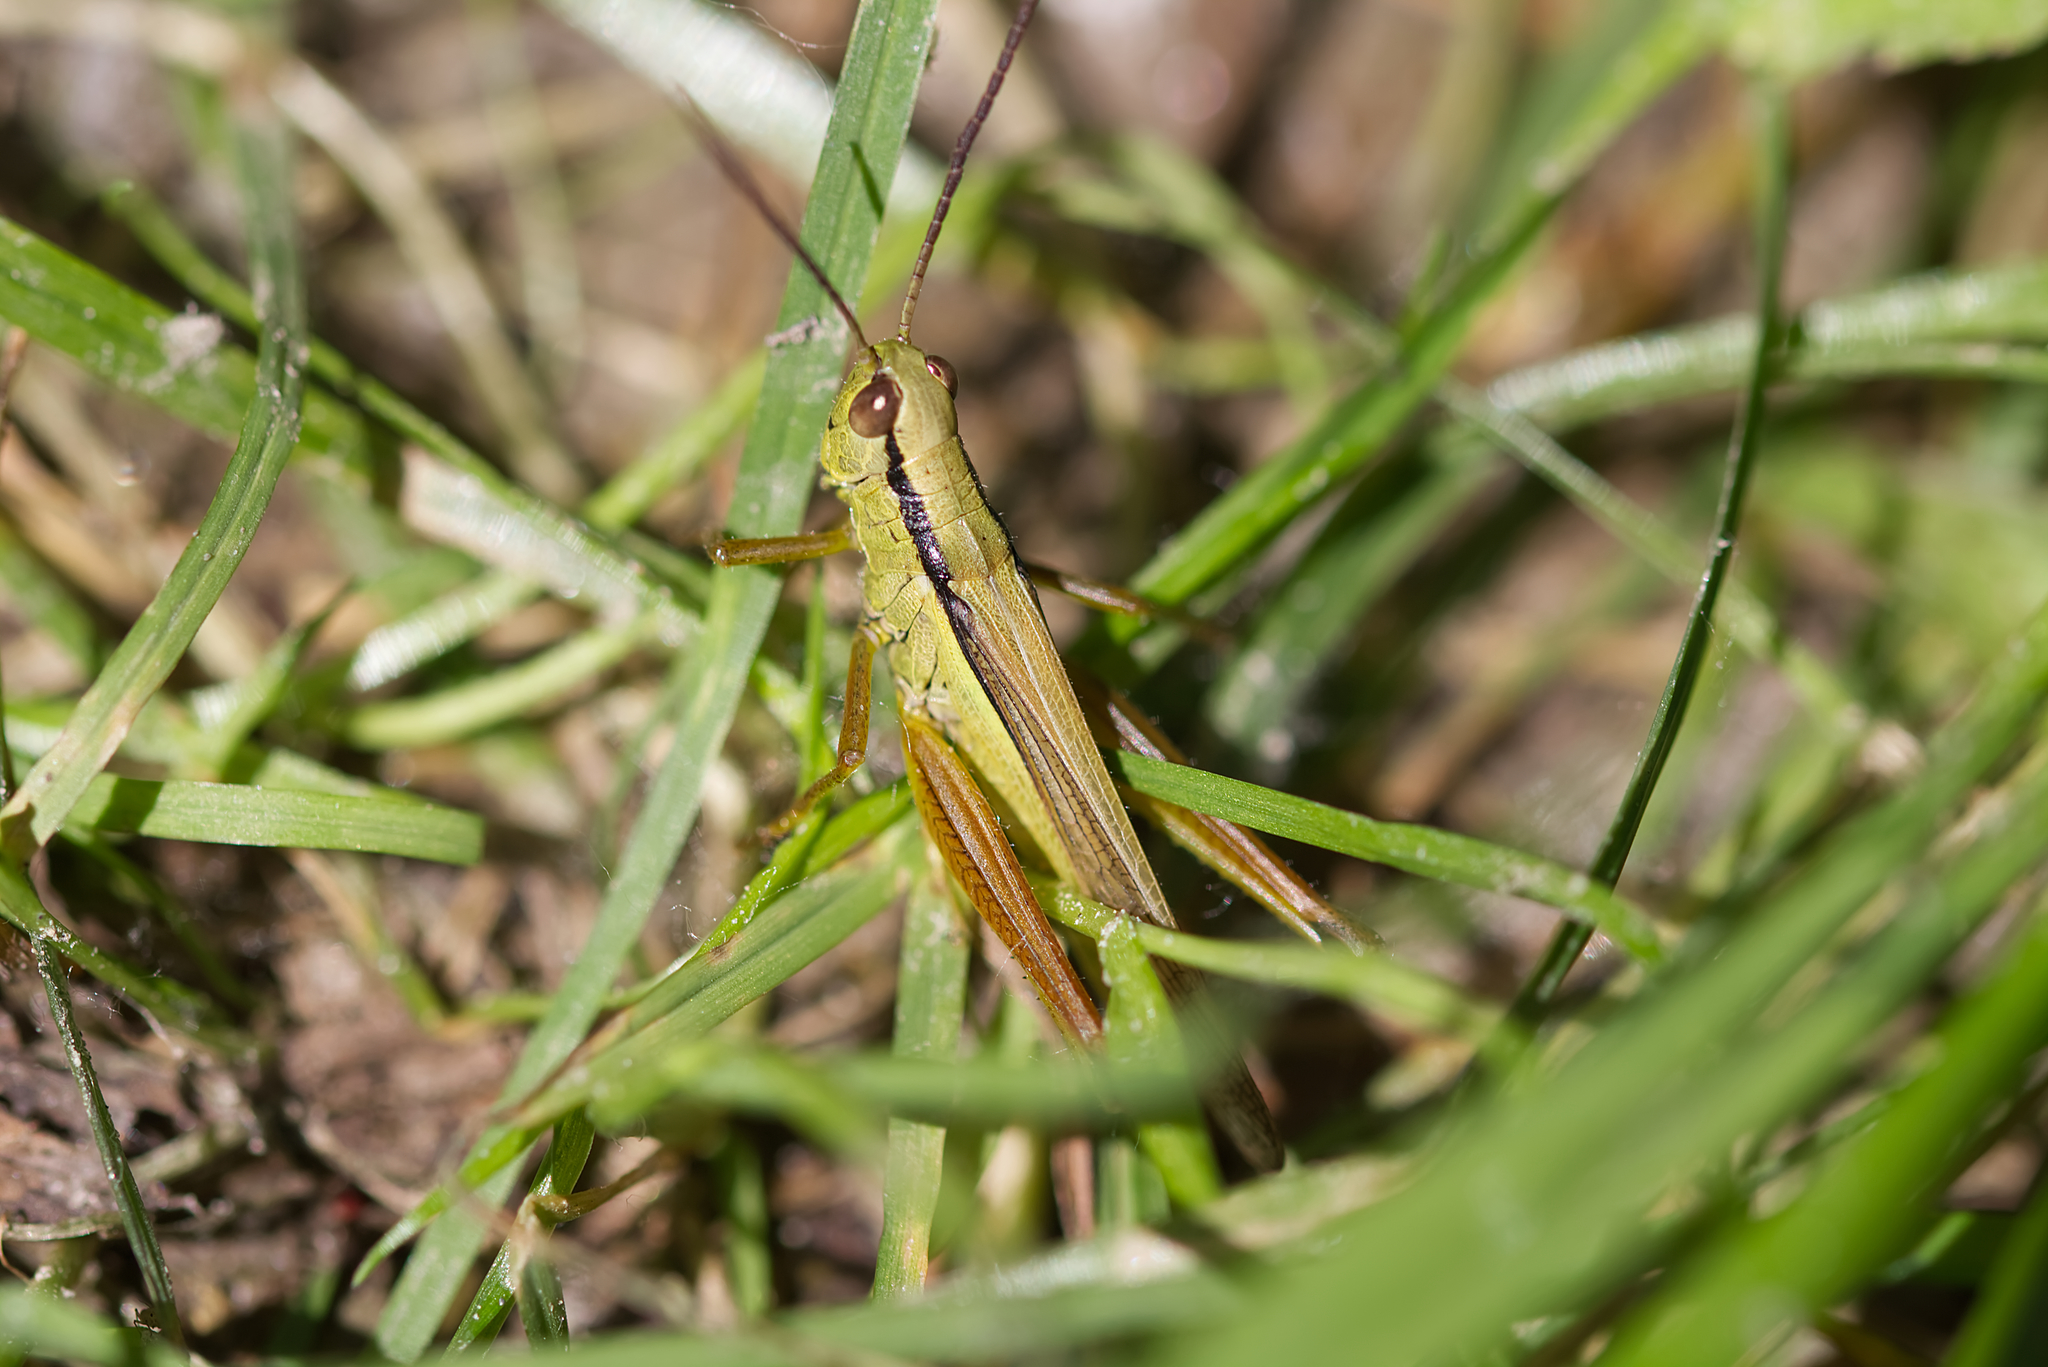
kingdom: Animalia
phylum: Arthropoda
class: Insecta
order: Orthoptera
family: Acrididae
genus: Mecostethus
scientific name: Mecostethus parapleurus
